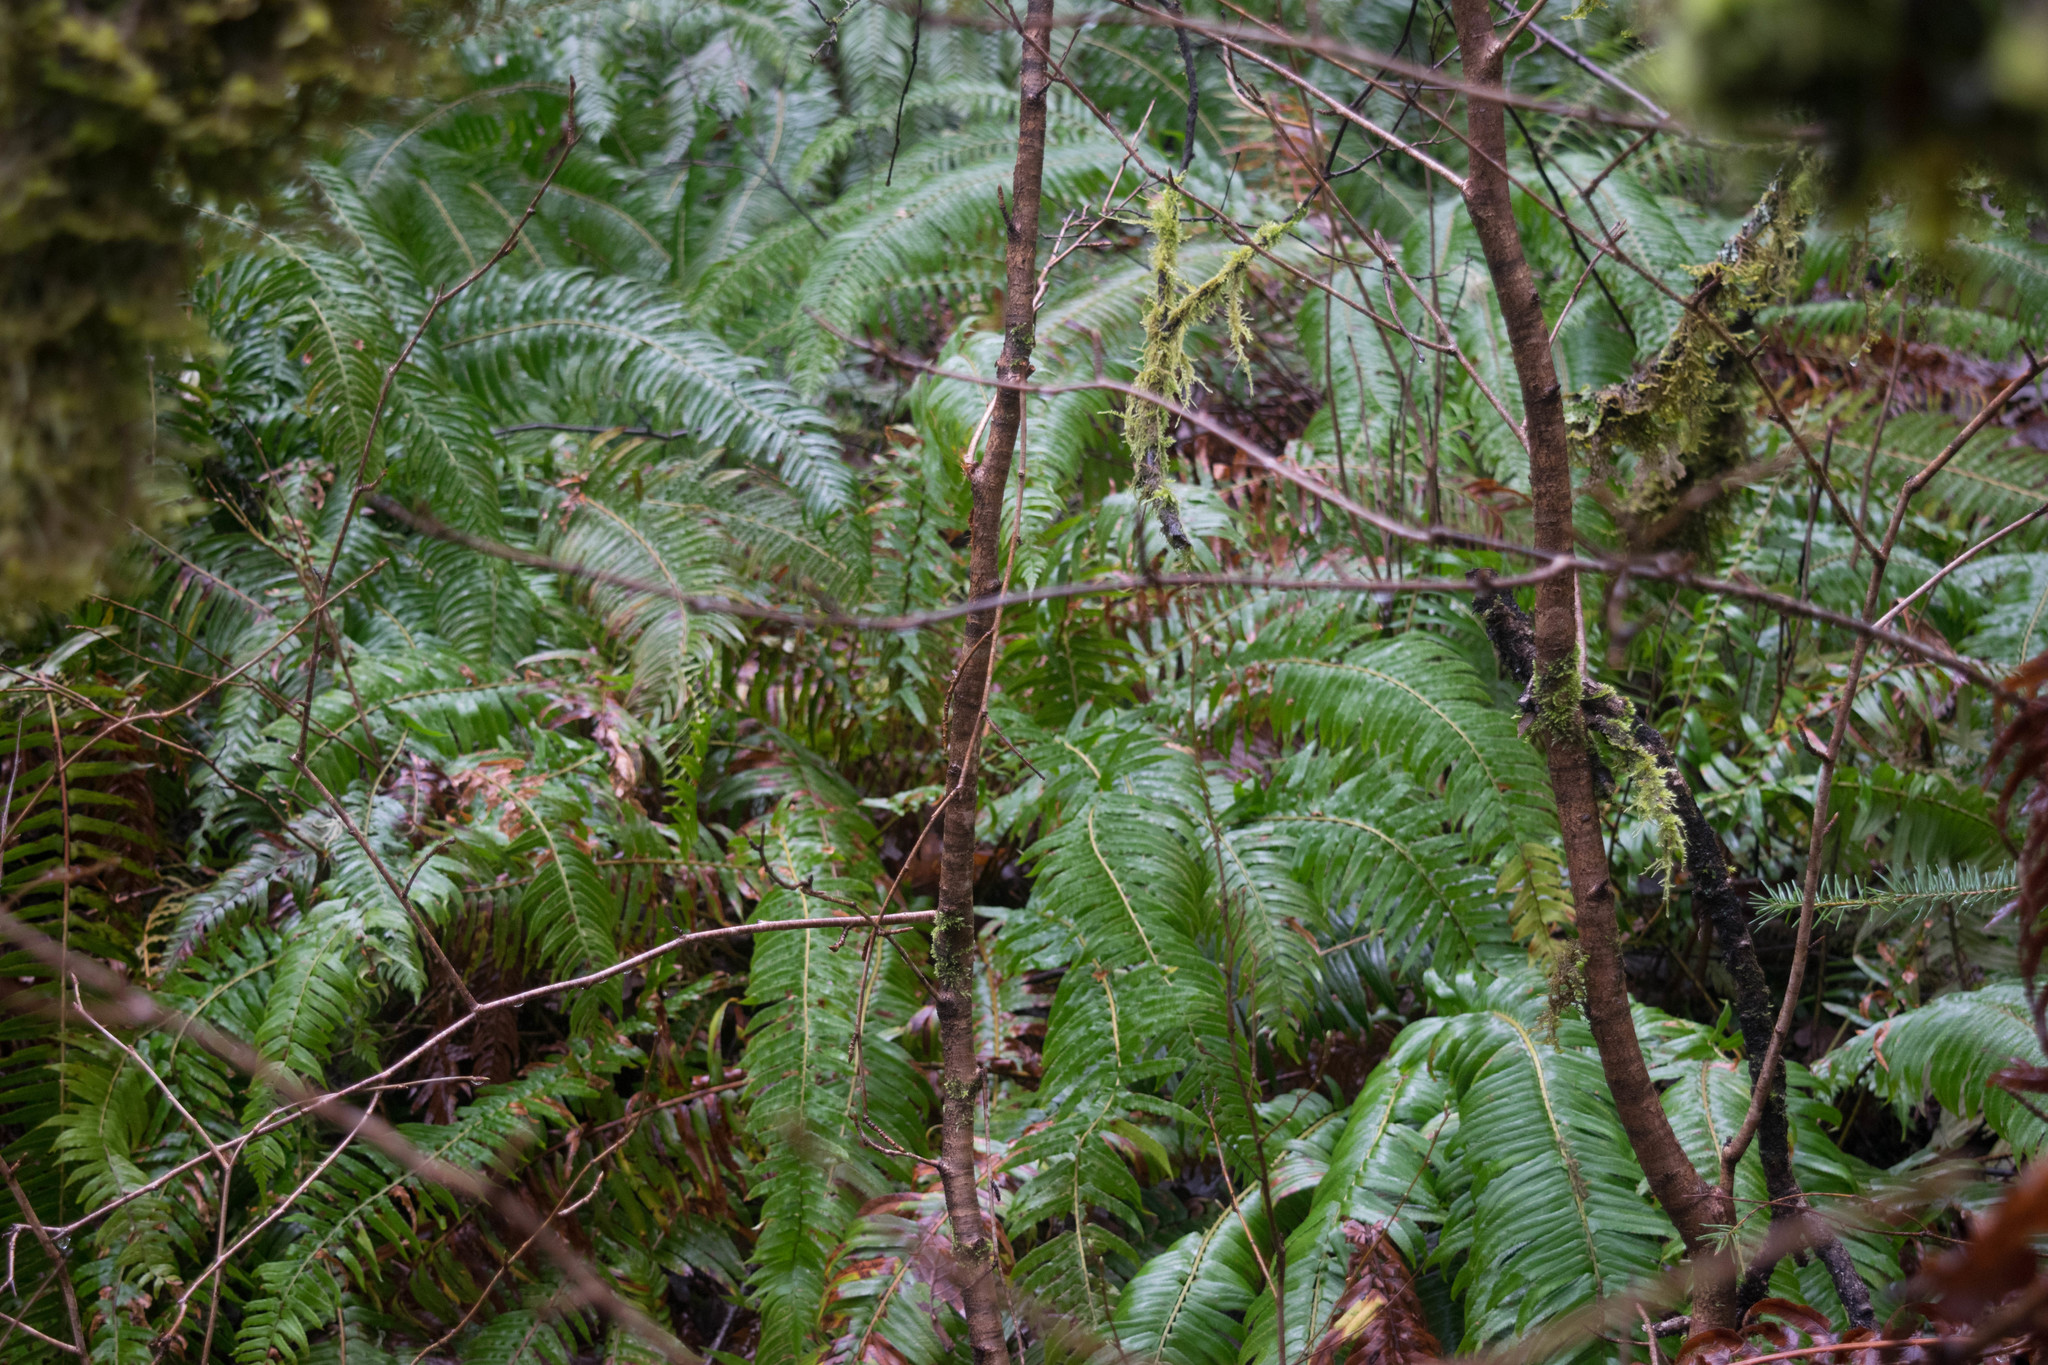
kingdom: Plantae
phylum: Tracheophyta
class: Polypodiopsida
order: Polypodiales
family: Dryopteridaceae
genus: Polystichum
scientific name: Polystichum munitum
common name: Western sword-fern
